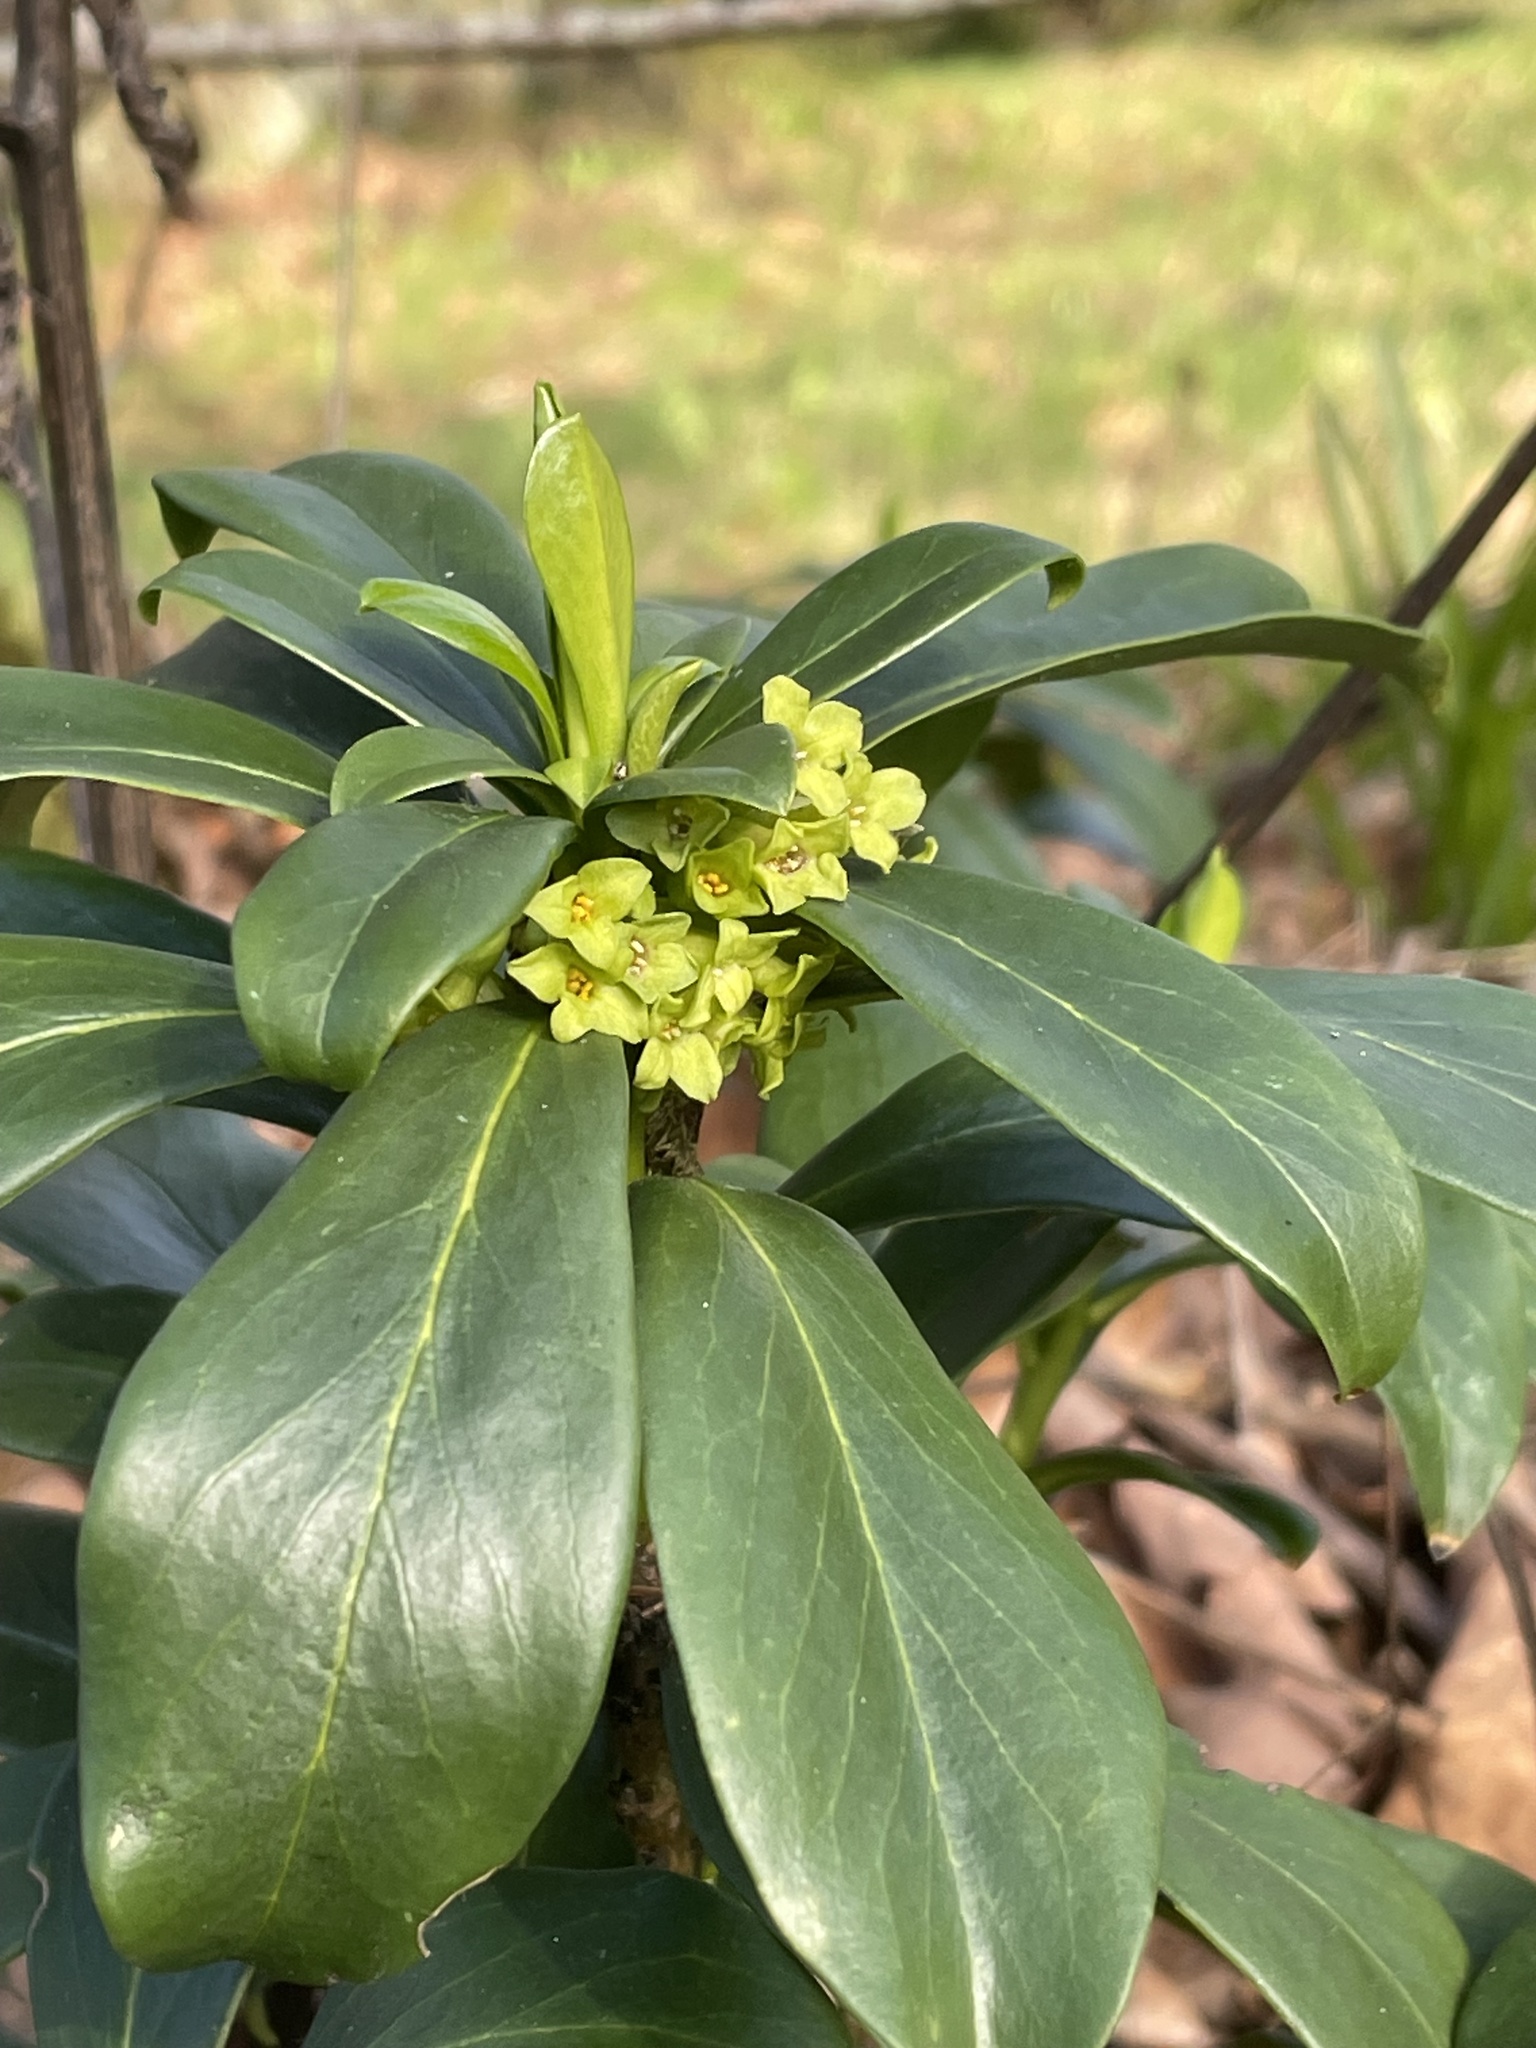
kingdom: Plantae
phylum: Tracheophyta
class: Magnoliopsida
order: Malvales
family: Thymelaeaceae
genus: Daphne
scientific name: Daphne laureola
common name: Spurge-laurel
